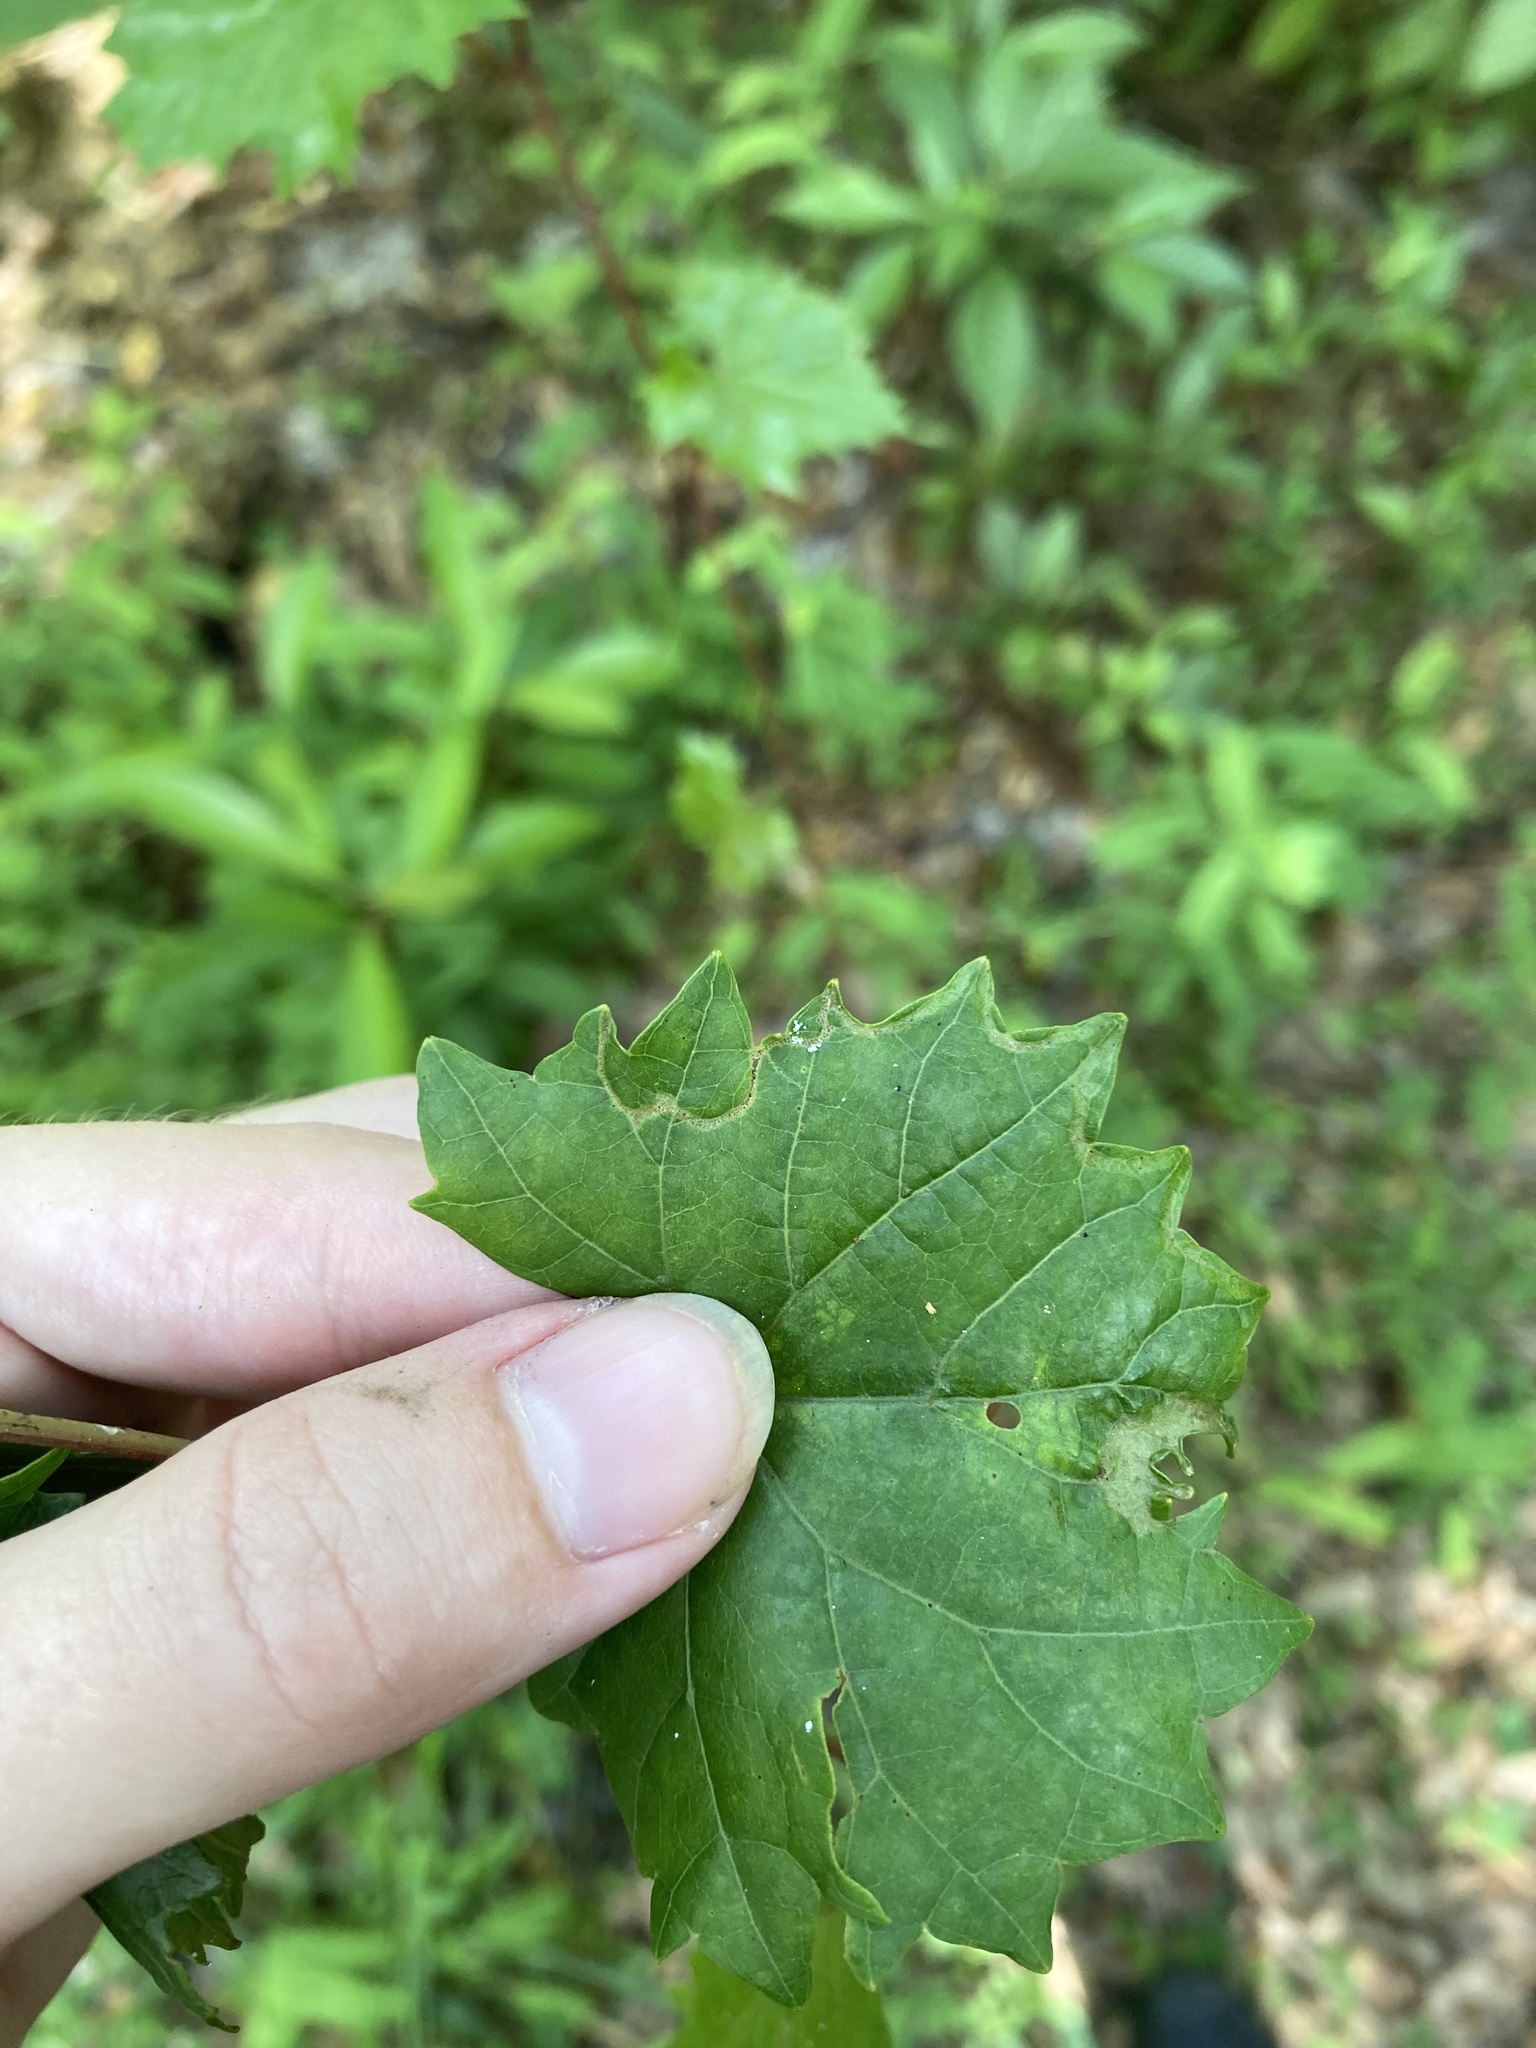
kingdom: Animalia
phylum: Arthropoda
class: Insecta
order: Lepidoptera
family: Gracillariidae
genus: Phyllocnistis
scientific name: Phyllocnistis vitegenella
